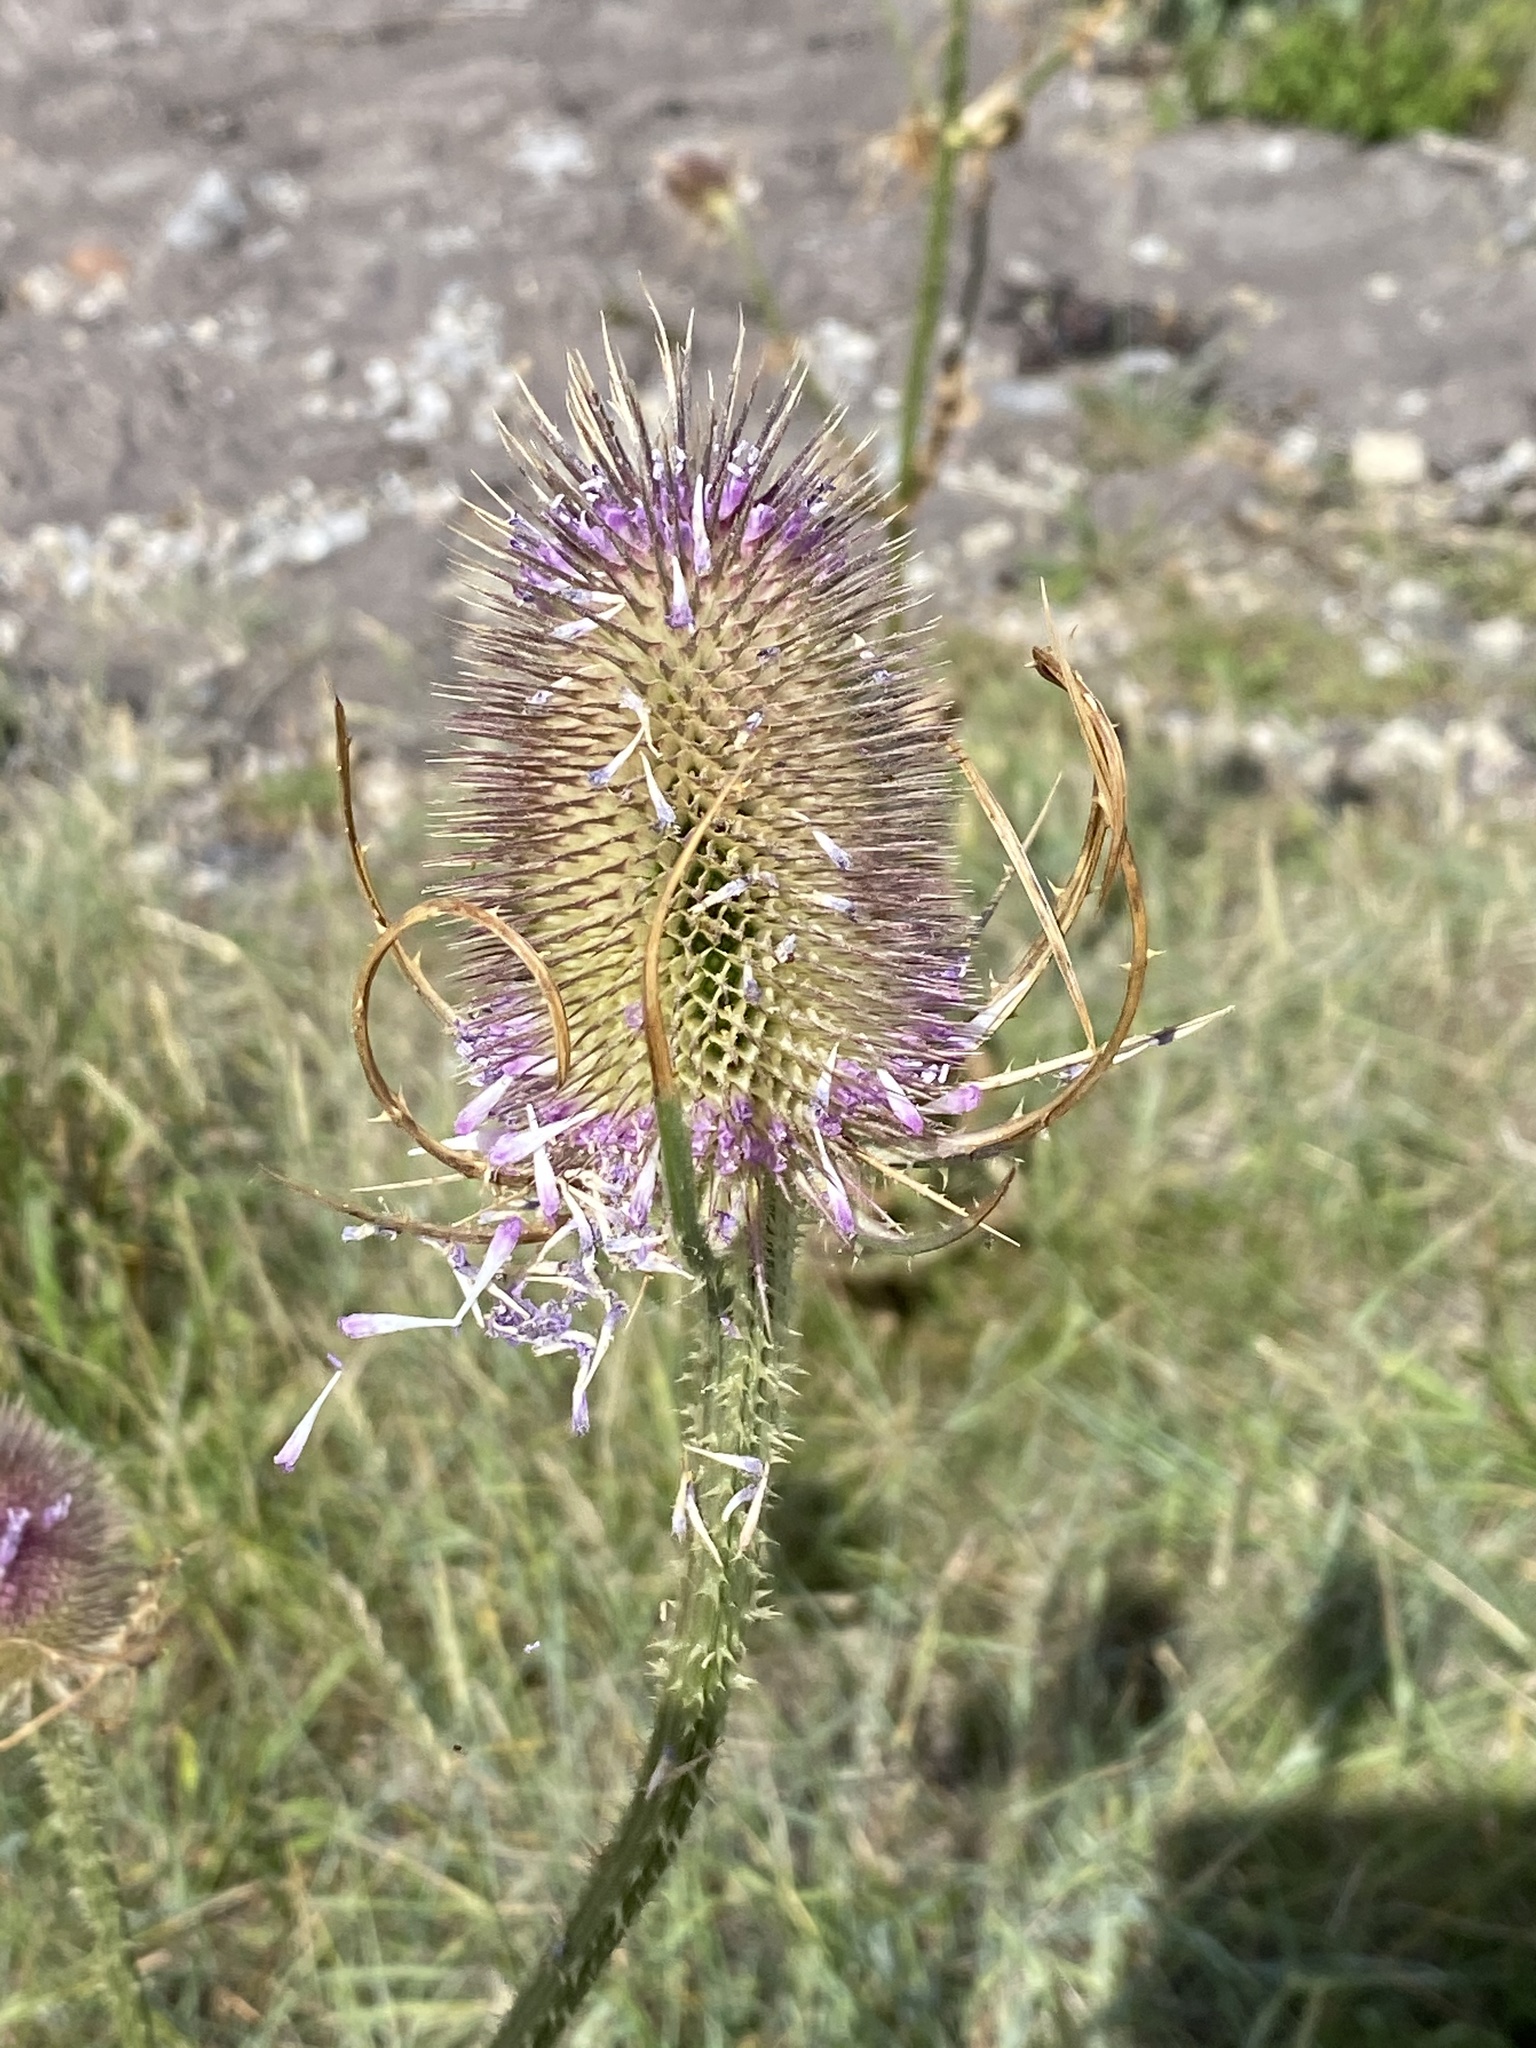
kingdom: Plantae
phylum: Tracheophyta
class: Magnoliopsida
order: Dipsacales
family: Caprifoliaceae
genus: Dipsacus
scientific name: Dipsacus fullonum
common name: Teasel
